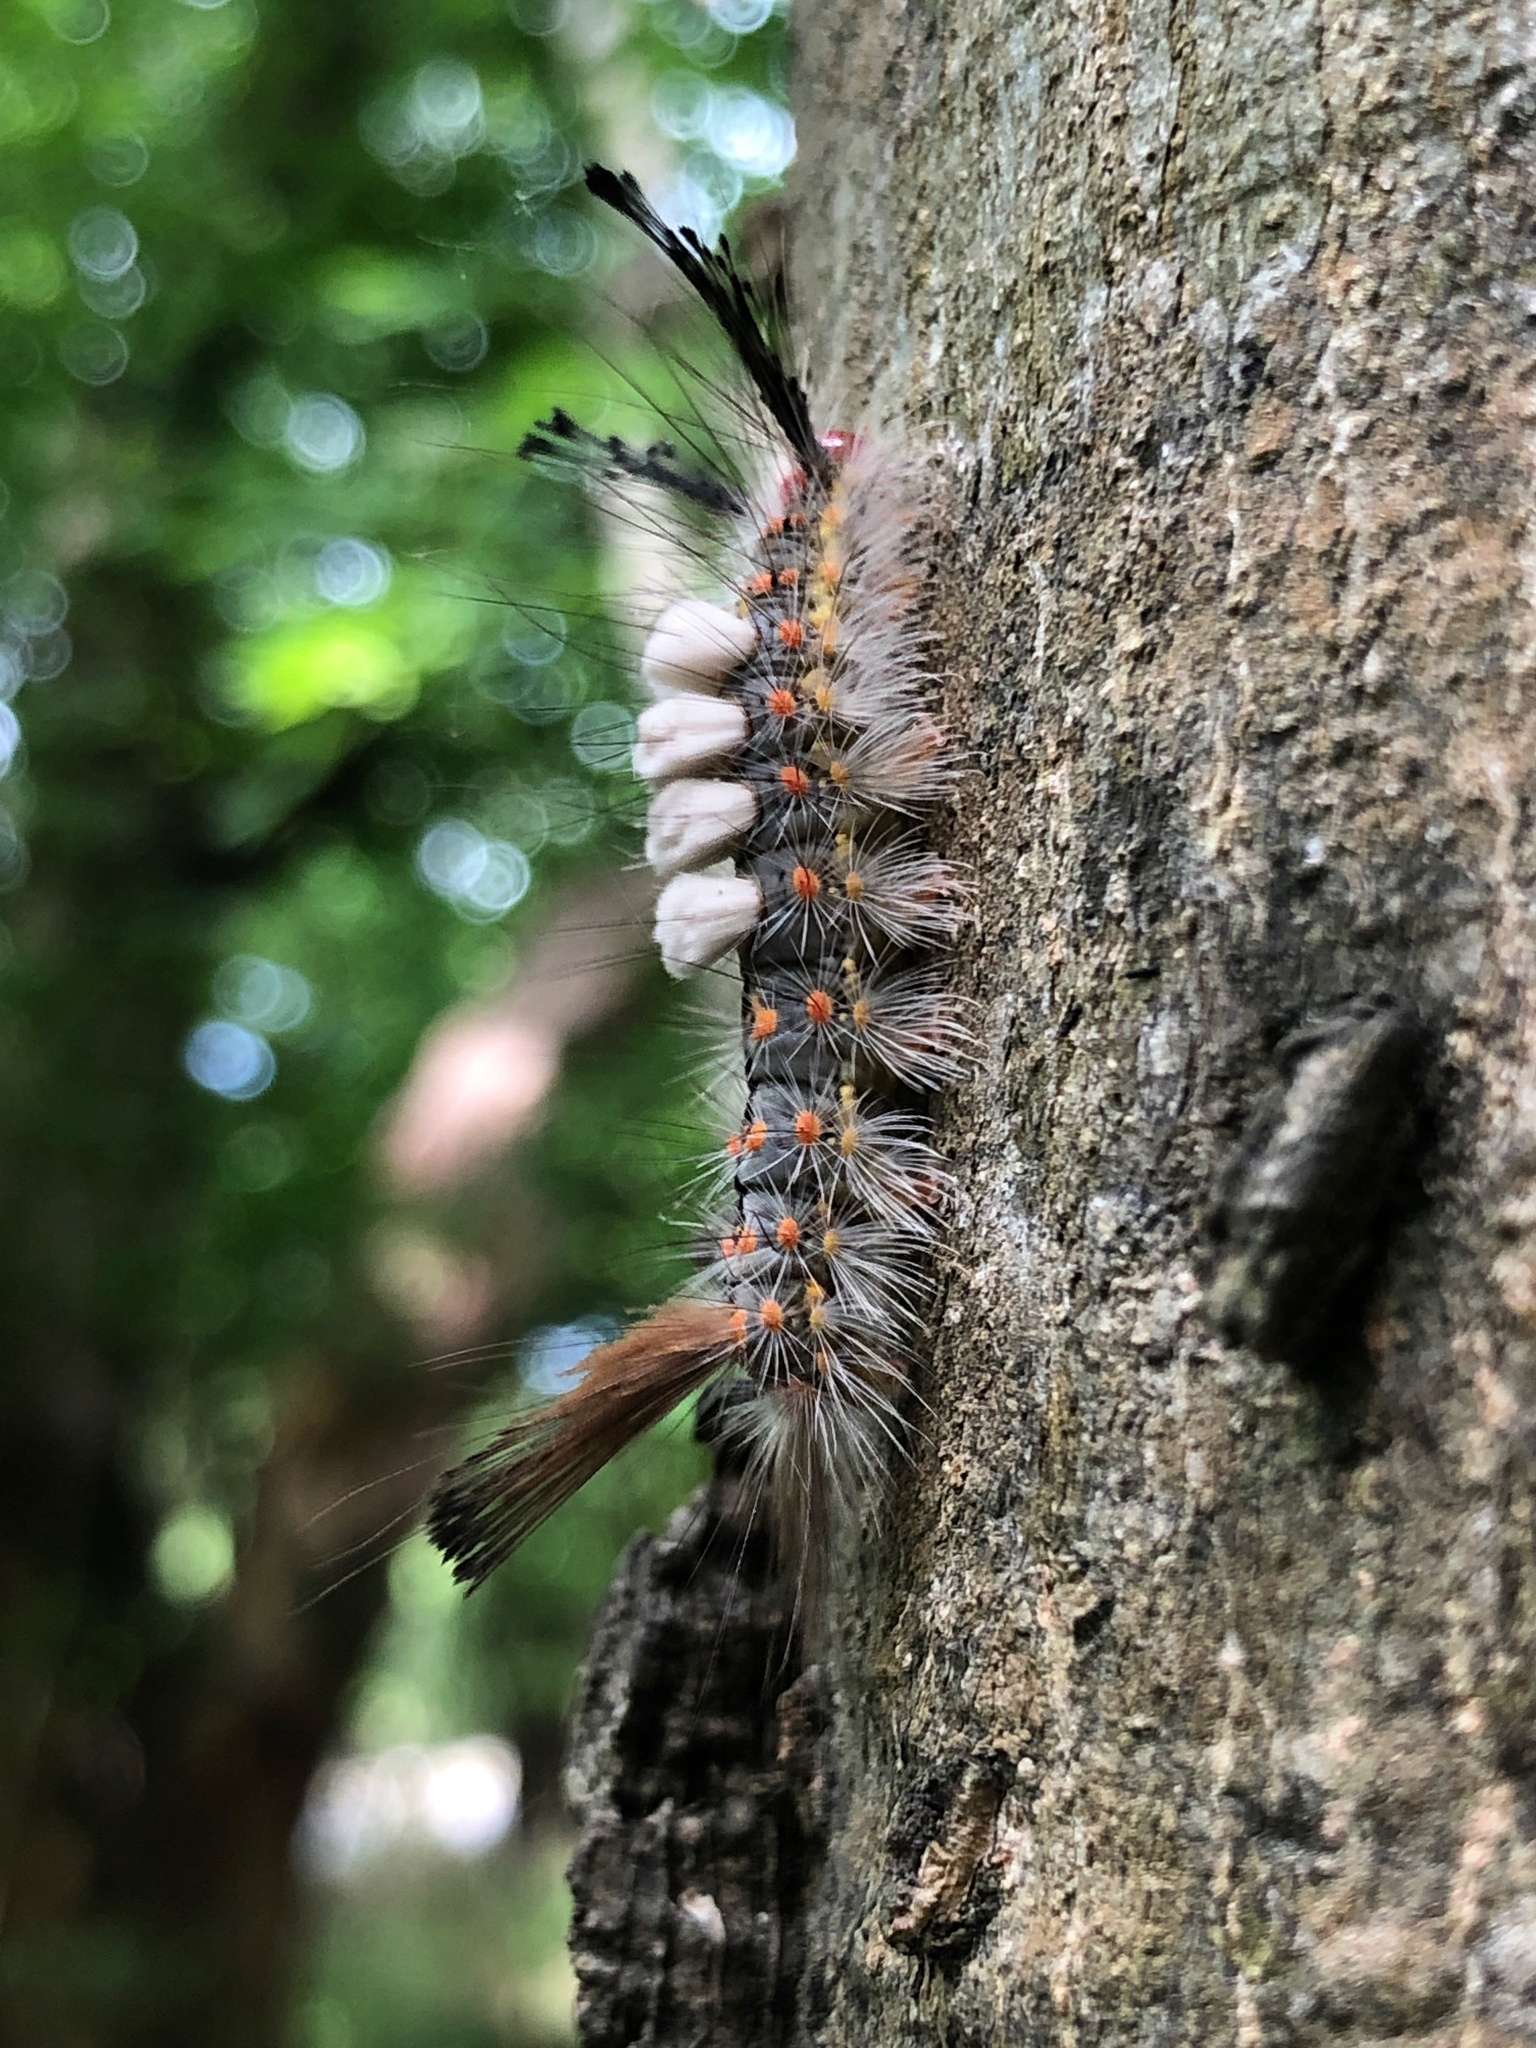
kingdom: Animalia
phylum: Arthropoda
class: Insecta
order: Lepidoptera
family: Erebidae
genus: Orgyia
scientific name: Orgyia detrita
